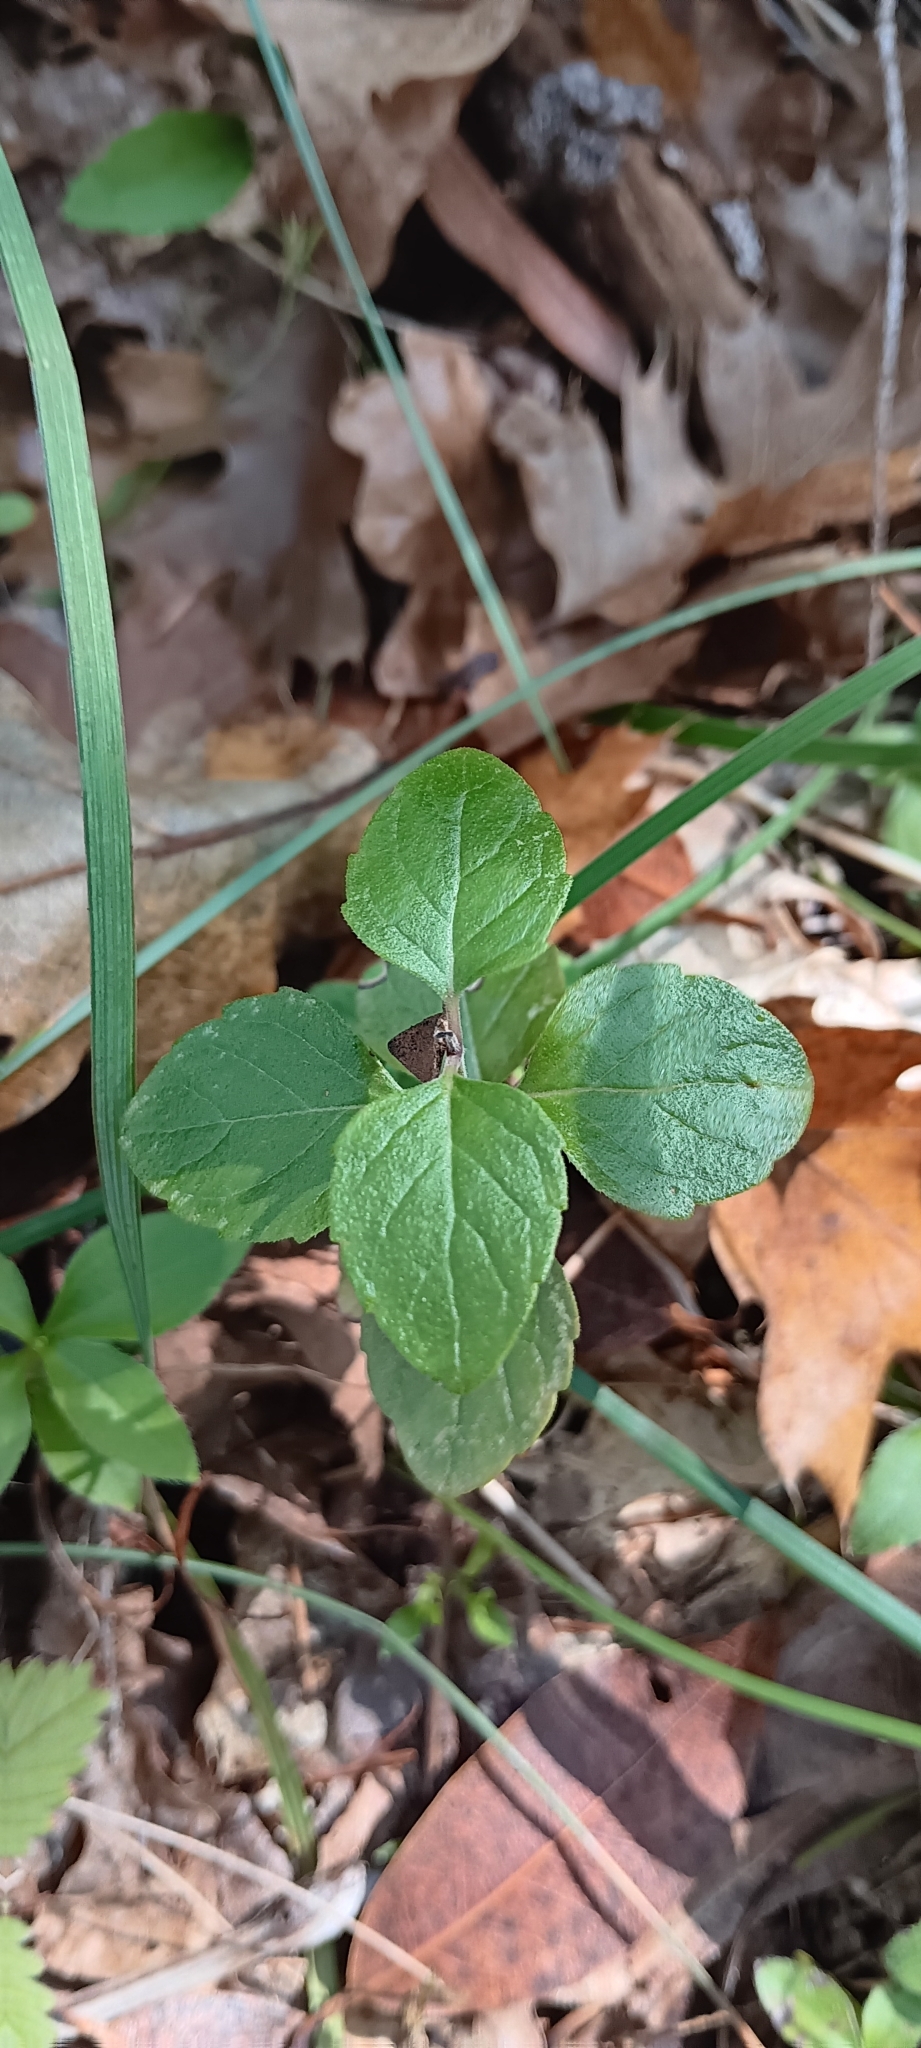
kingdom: Plantae
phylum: Tracheophyta
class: Magnoliopsida
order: Lamiales
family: Lamiaceae
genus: Micromeria
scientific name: Micromeria douglasii
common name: Yerba buena
